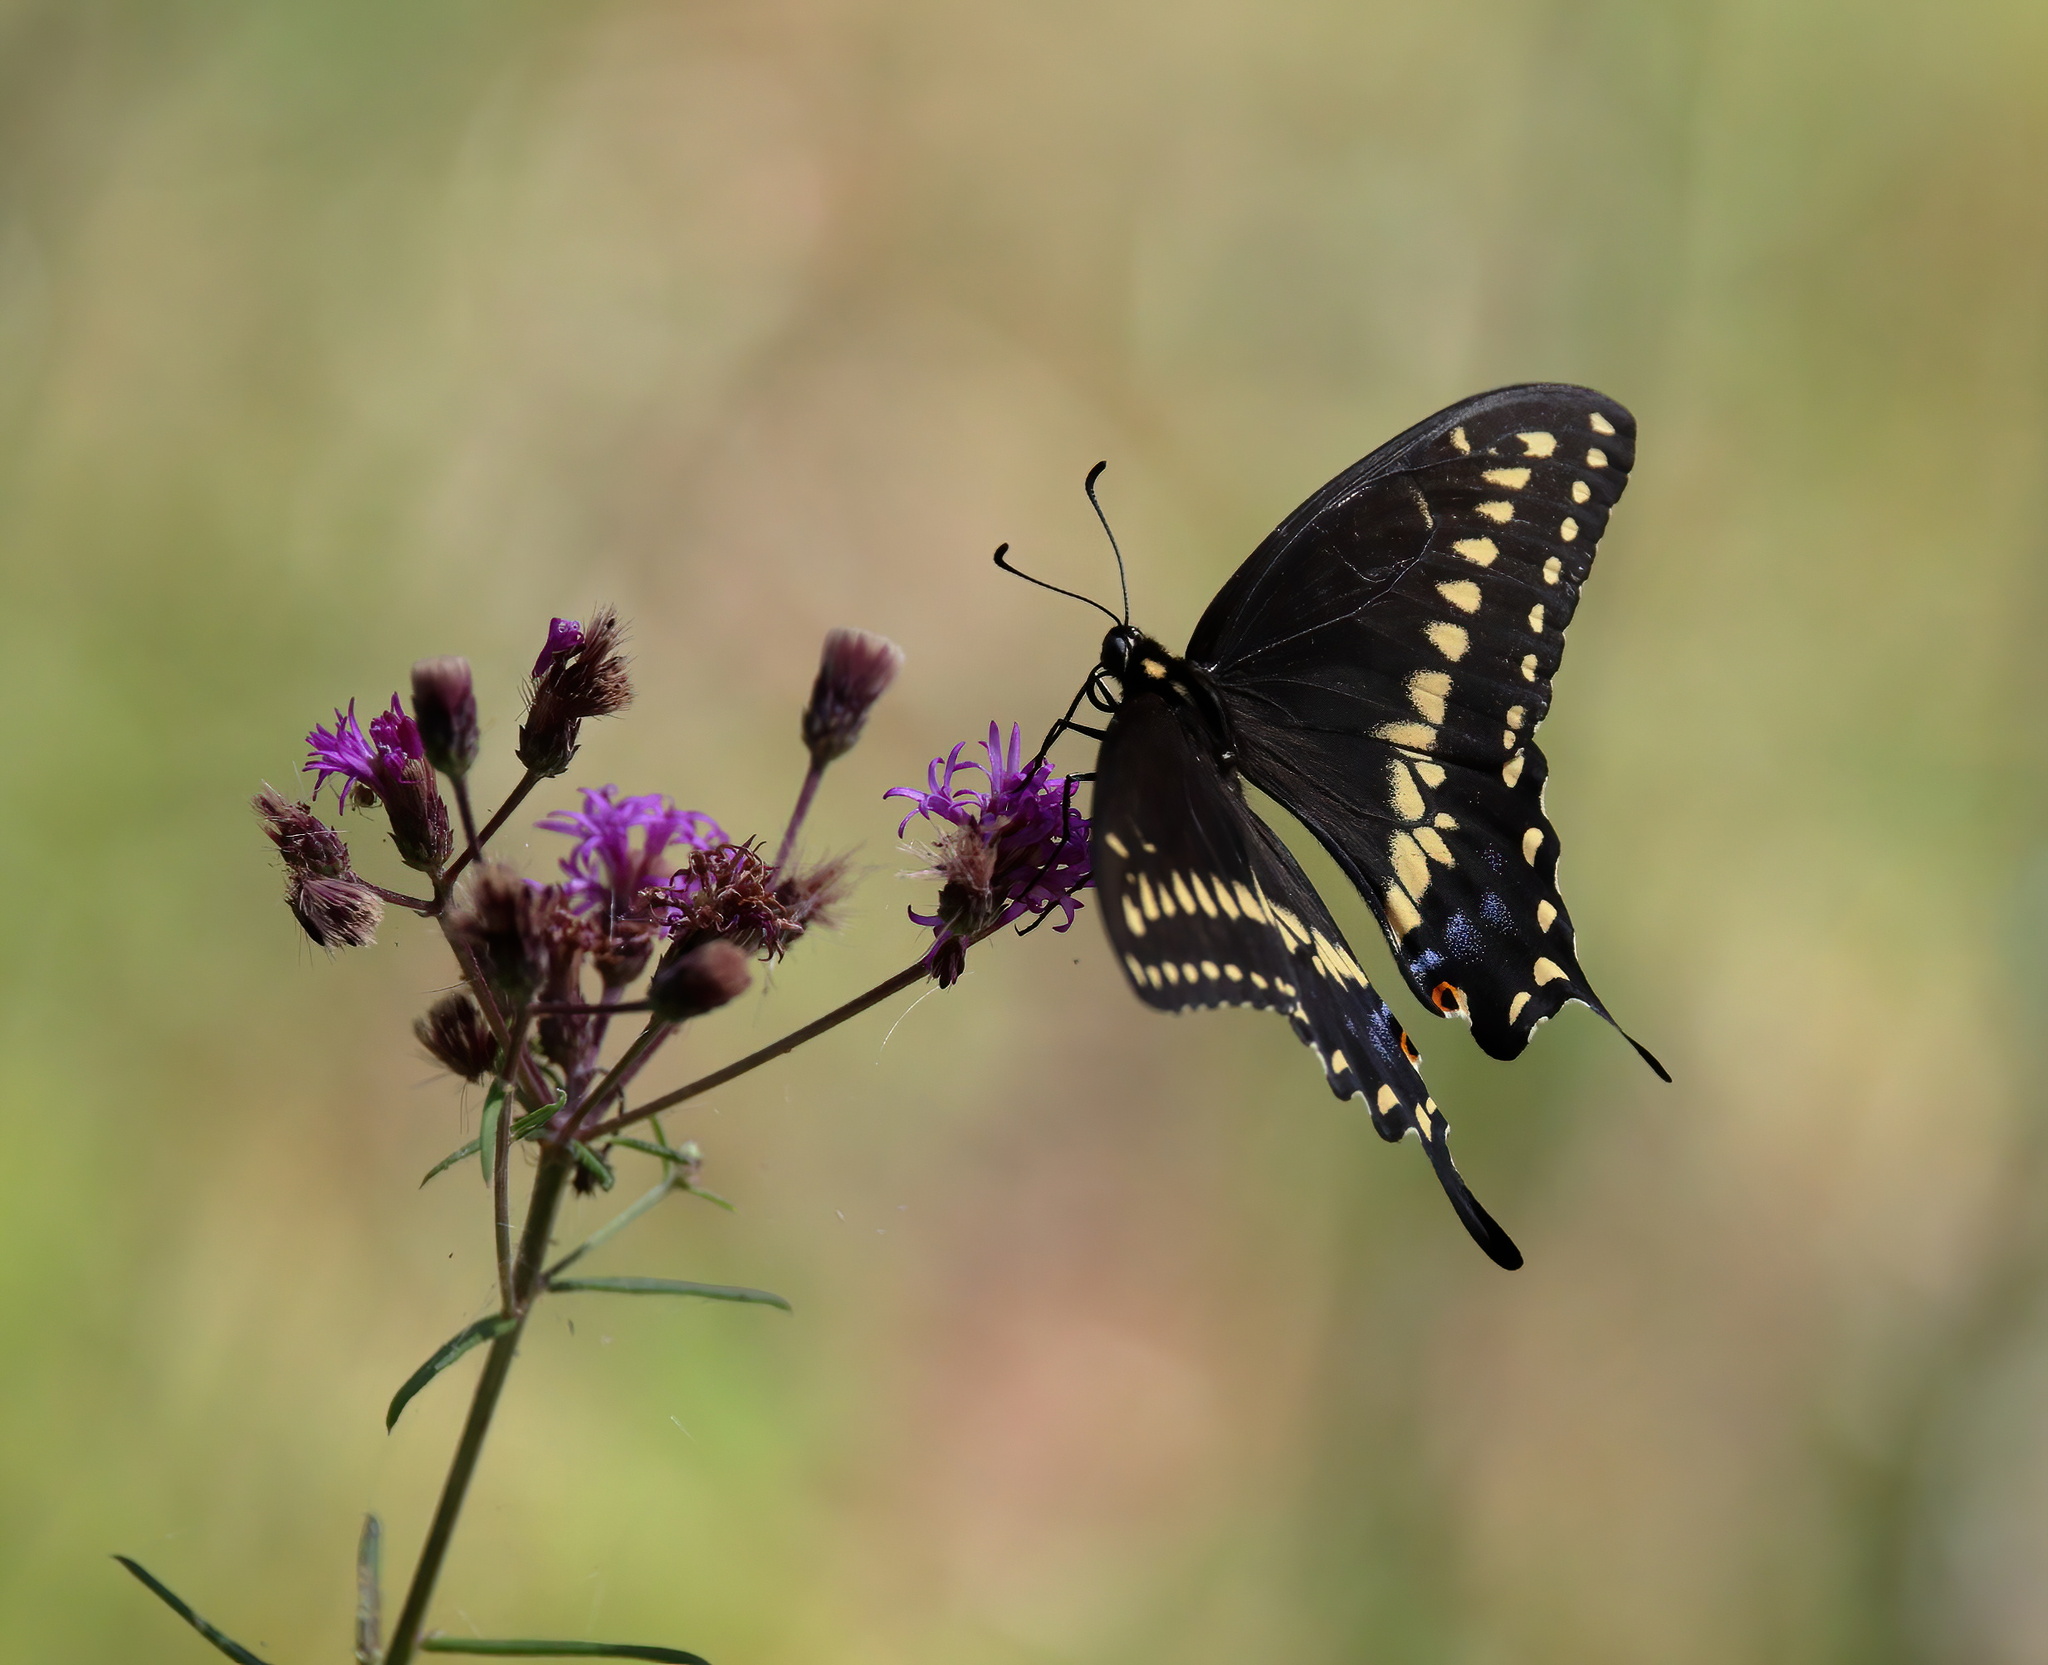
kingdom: Animalia
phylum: Arthropoda
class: Insecta
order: Lepidoptera
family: Papilionidae
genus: Papilio
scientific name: Papilio polyxenes
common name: Black swallowtail
